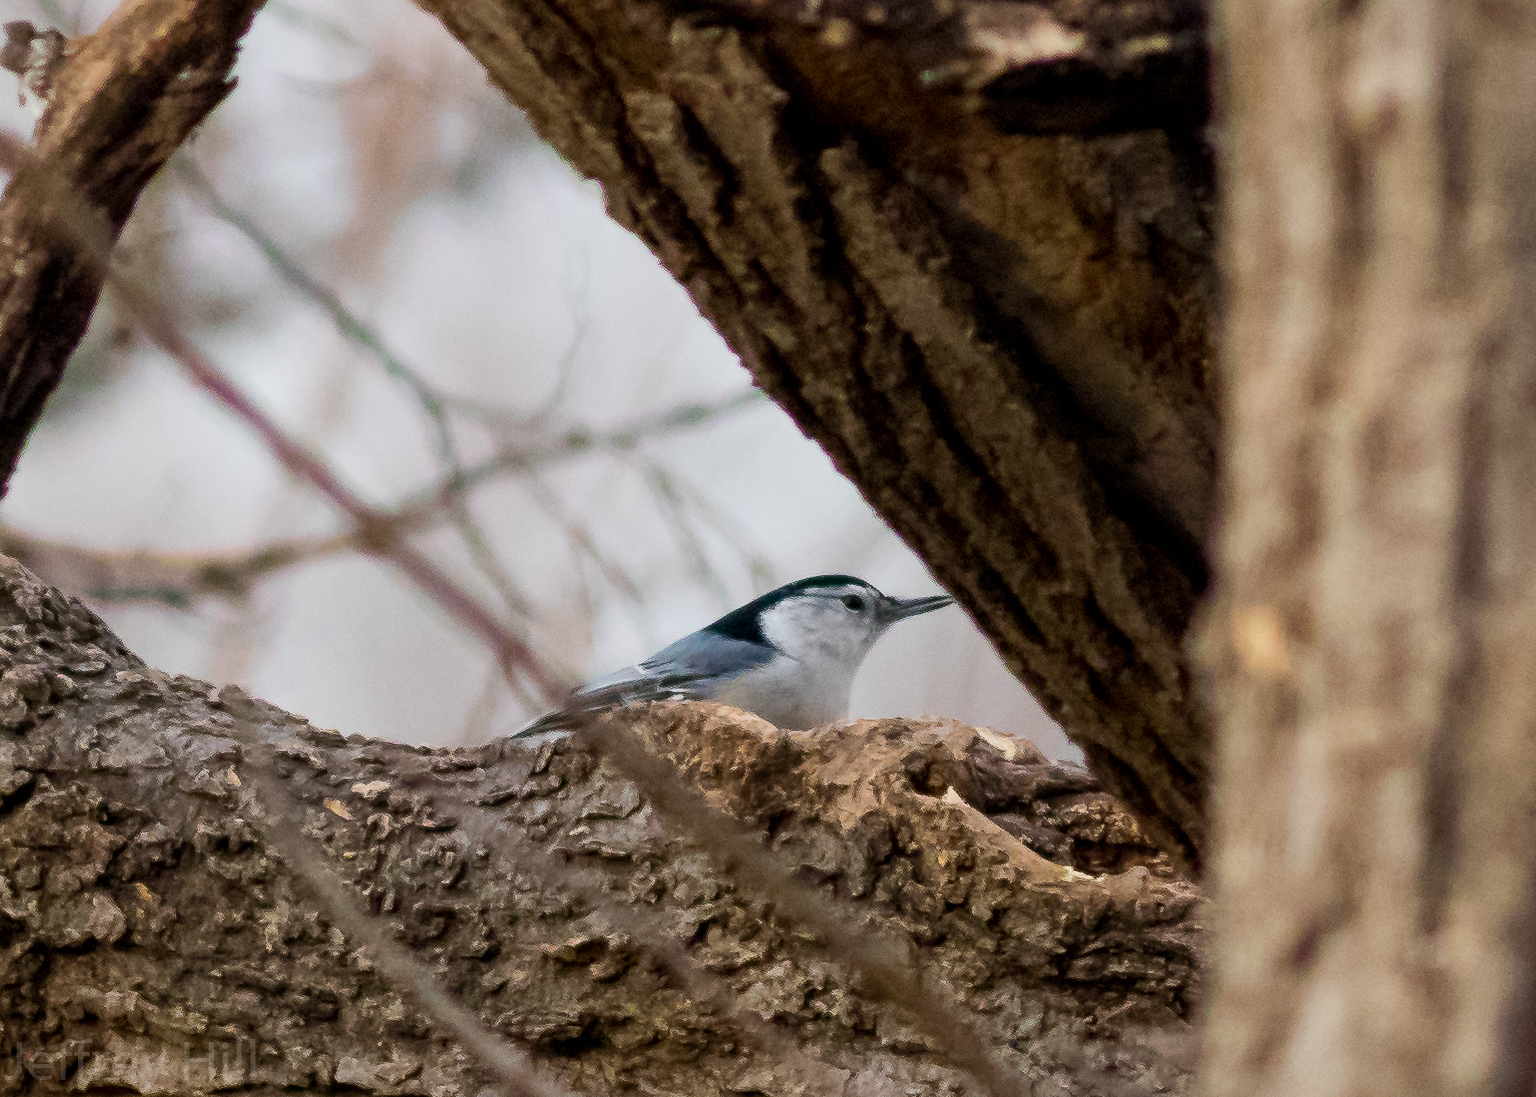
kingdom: Animalia
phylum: Chordata
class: Aves
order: Passeriformes
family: Sittidae
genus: Sitta
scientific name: Sitta carolinensis
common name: White-breasted nuthatch
